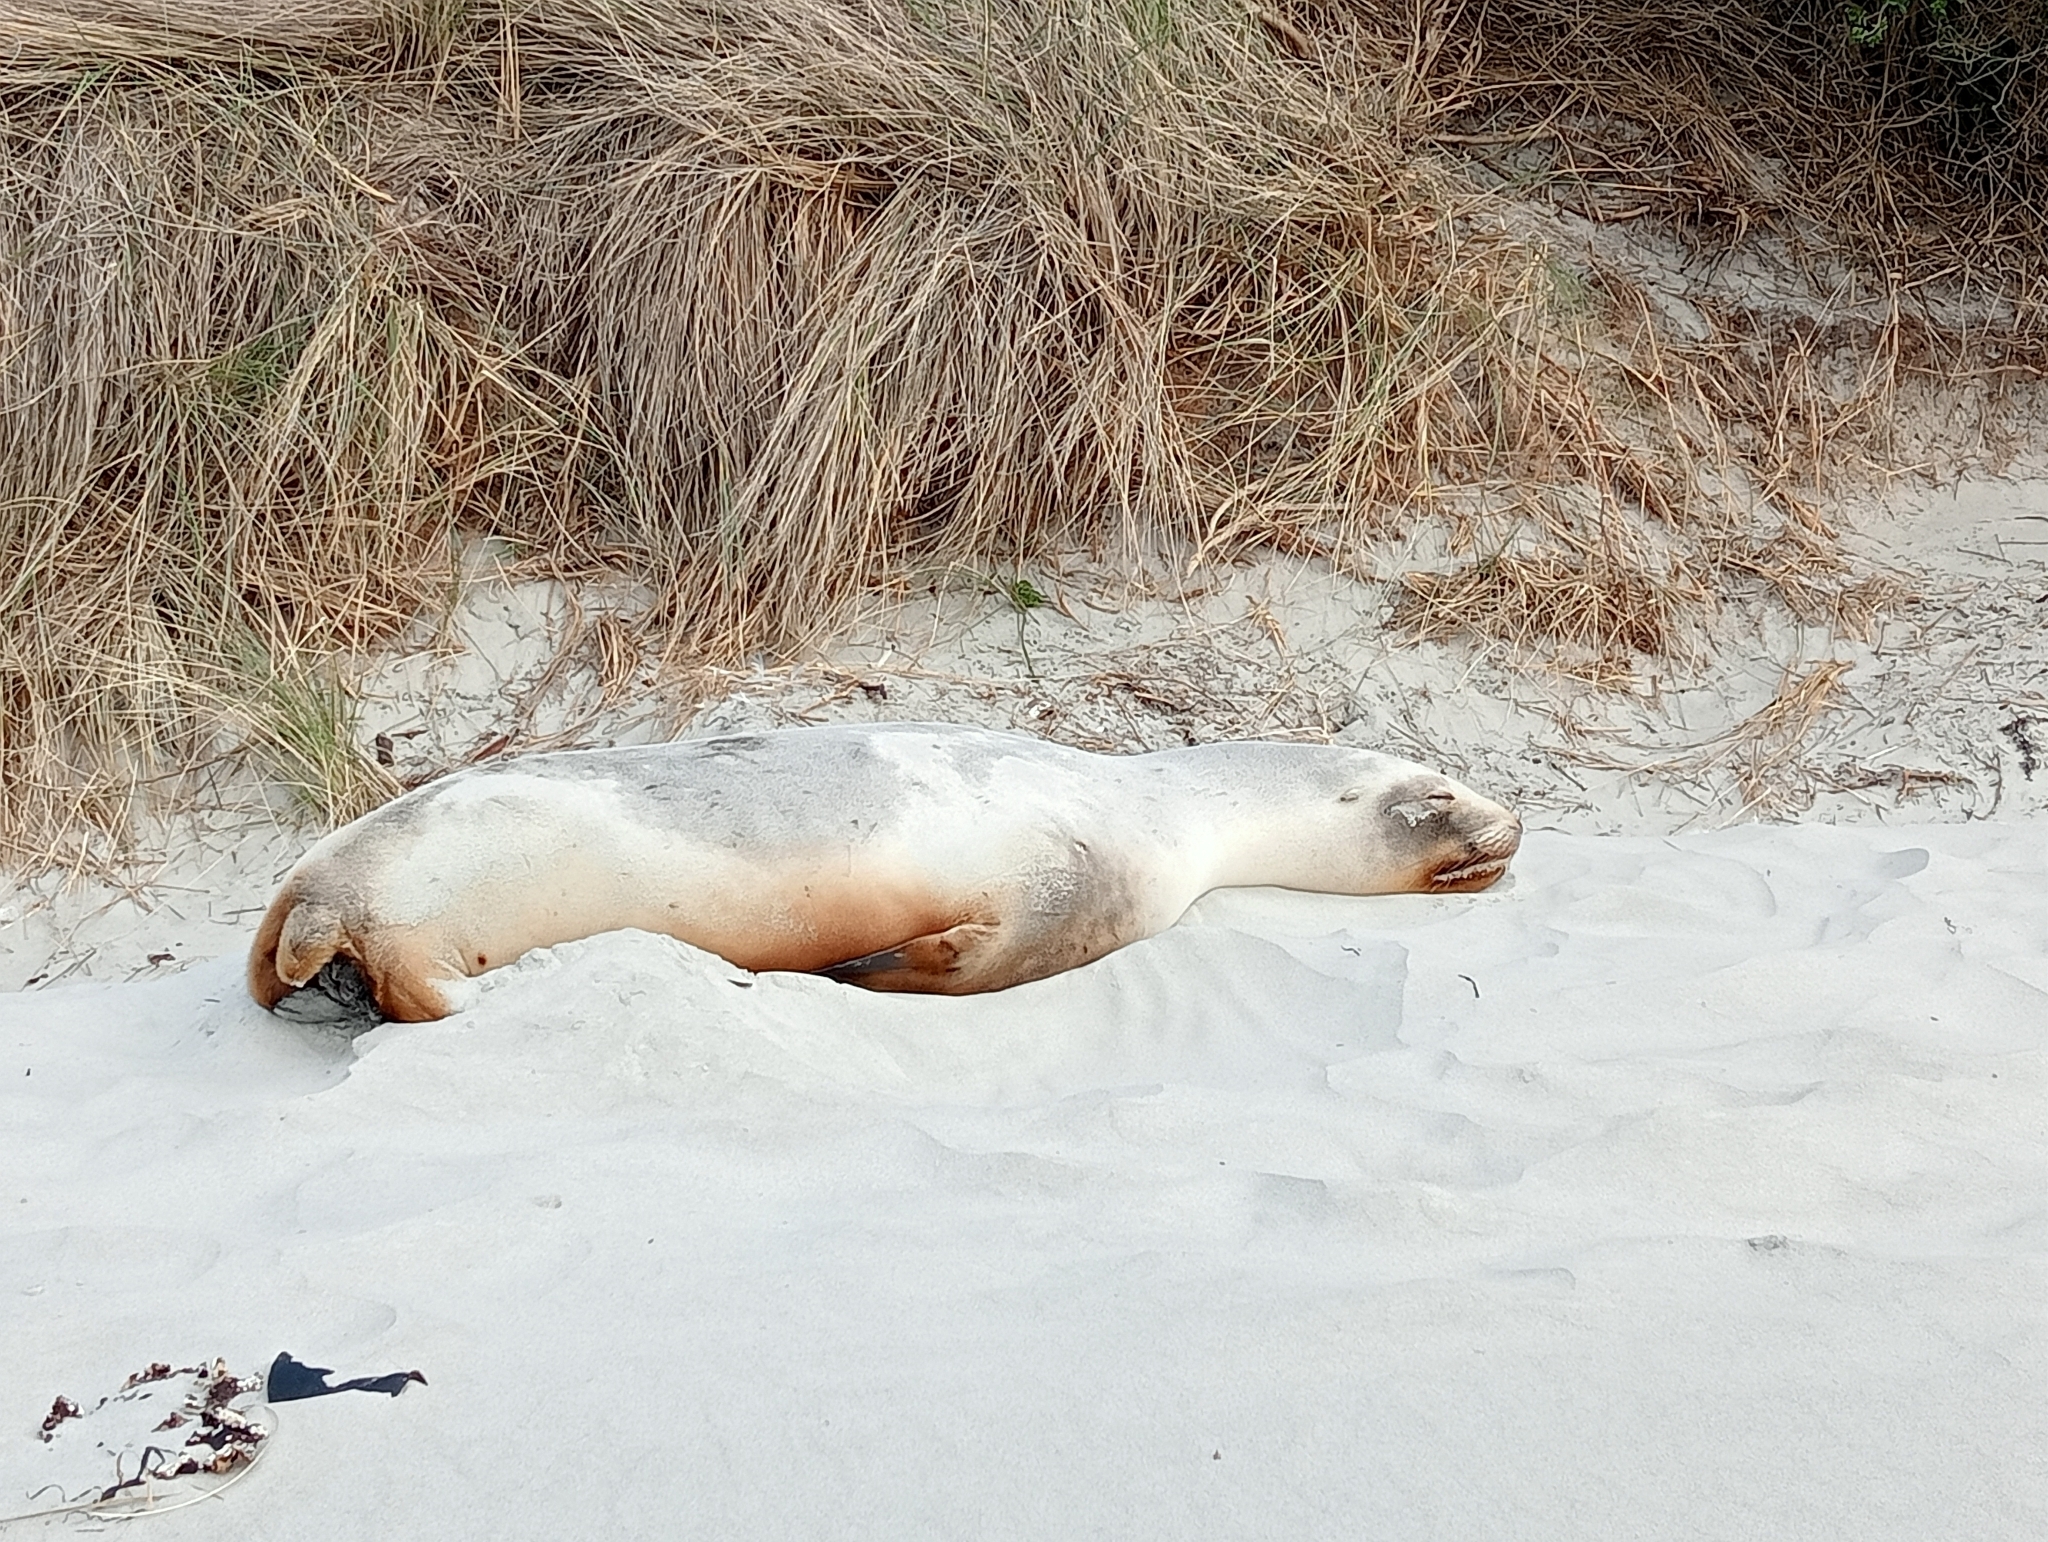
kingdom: Animalia
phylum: Chordata
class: Mammalia
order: Carnivora
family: Otariidae
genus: Phocarctos
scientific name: Phocarctos hookeri
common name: New zealand sea lion
